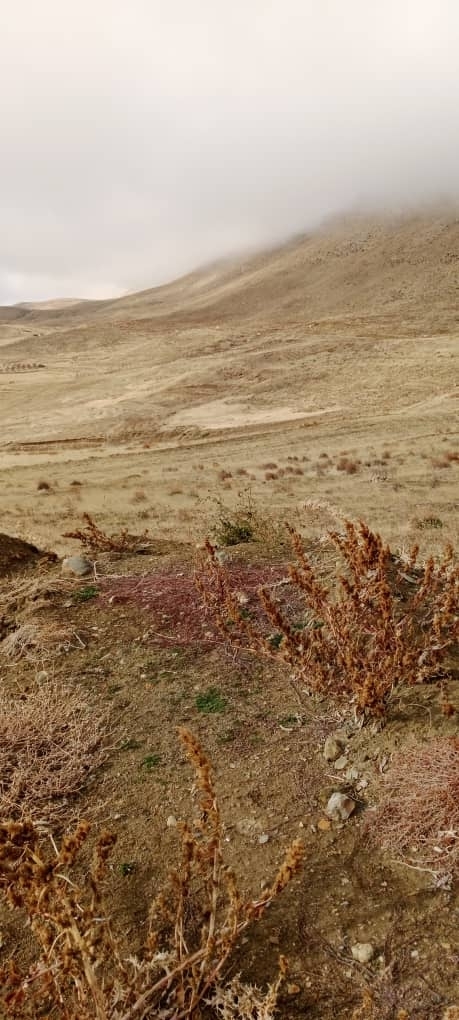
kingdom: Plantae
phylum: Tracheophyta
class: Magnoliopsida
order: Asterales
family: Asteraceae
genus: Artemisia
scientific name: Artemisia campestris
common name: Field wormwood
